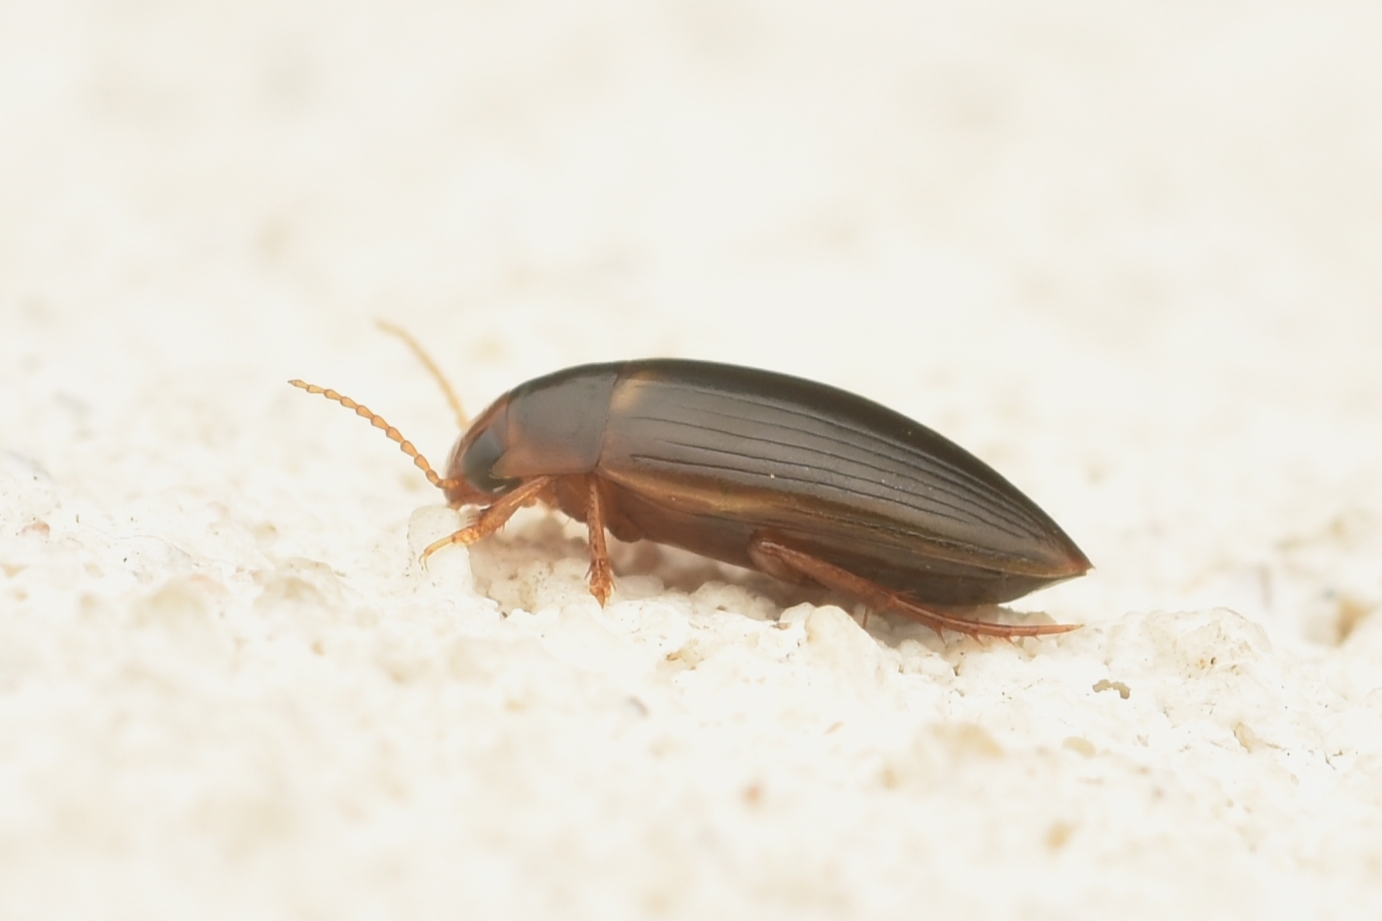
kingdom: Animalia
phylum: Arthropoda
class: Insecta
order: Coleoptera
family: Dytiscidae
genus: Copelatus
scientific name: Copelatus debilis
